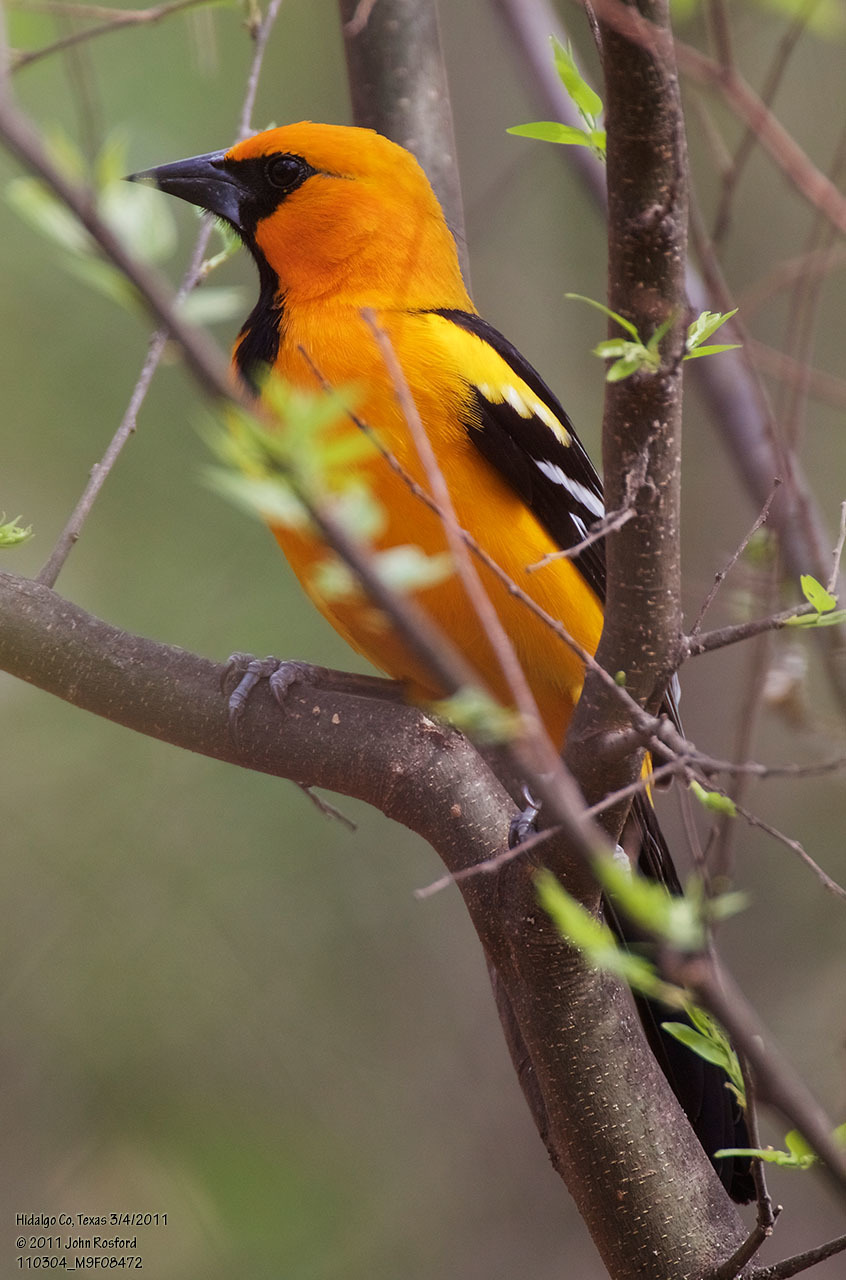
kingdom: Animalia
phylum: Chordata
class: Aves
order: Passeriformes
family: Icteridae
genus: Icterus
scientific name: Icterus gularis
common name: Altamira oriole
